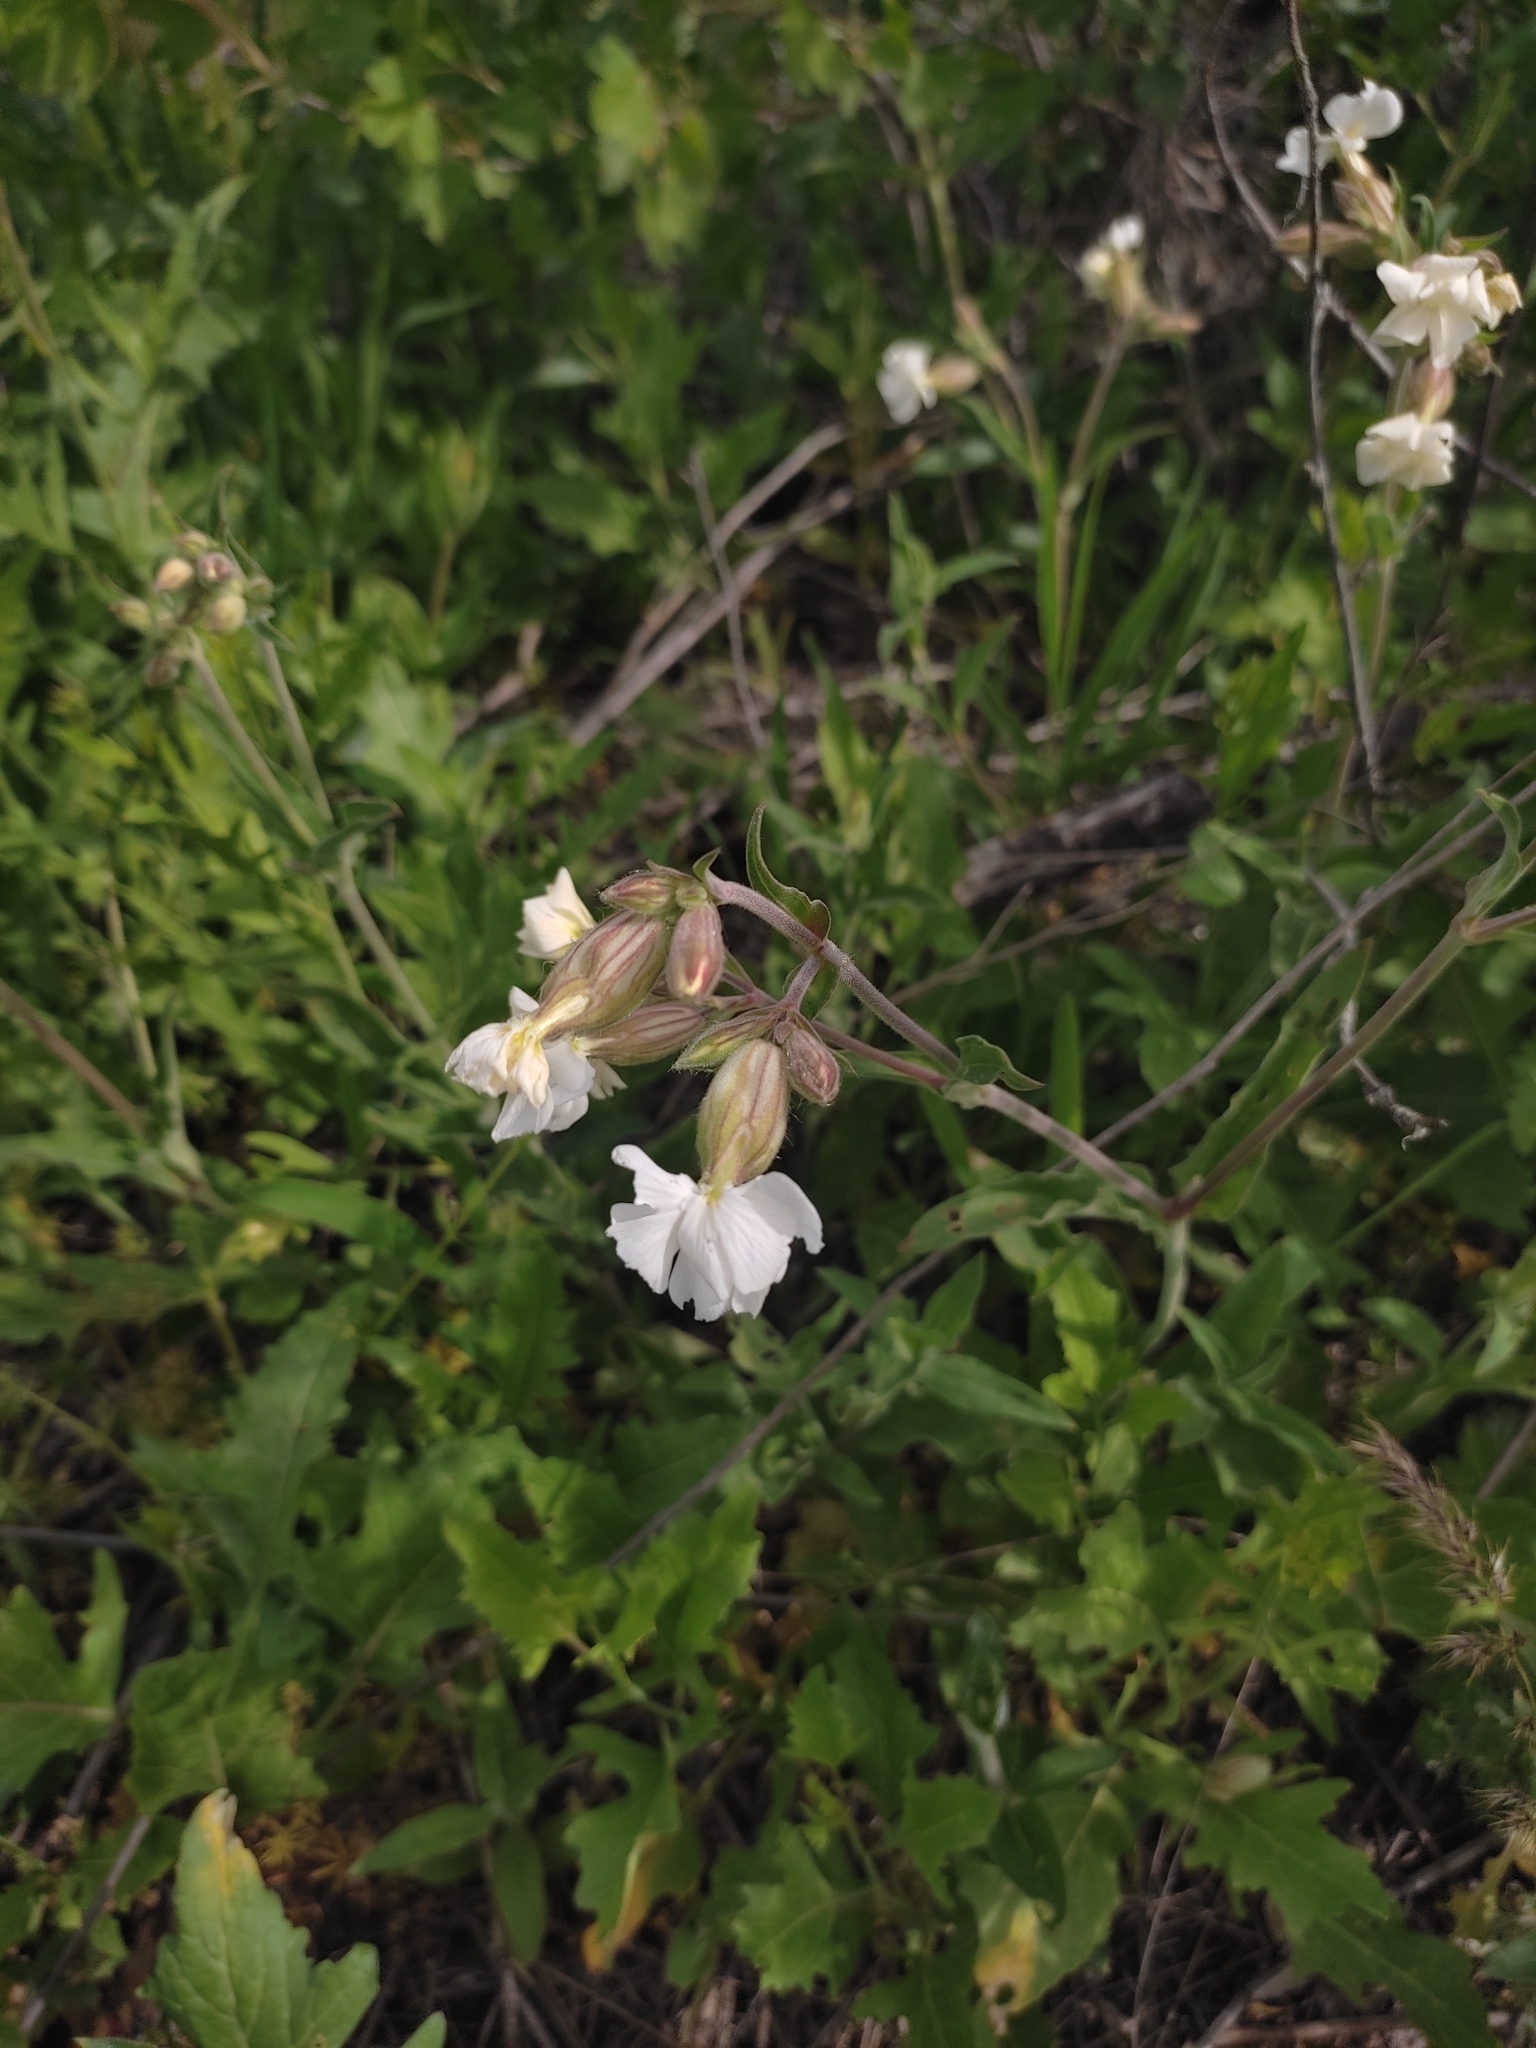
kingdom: Plantae
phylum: Tracheophyta
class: Magnoliopsida
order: Caryophyllales
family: Caryophyllaceae
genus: Silene
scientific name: Silene latifolia
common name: White campion
